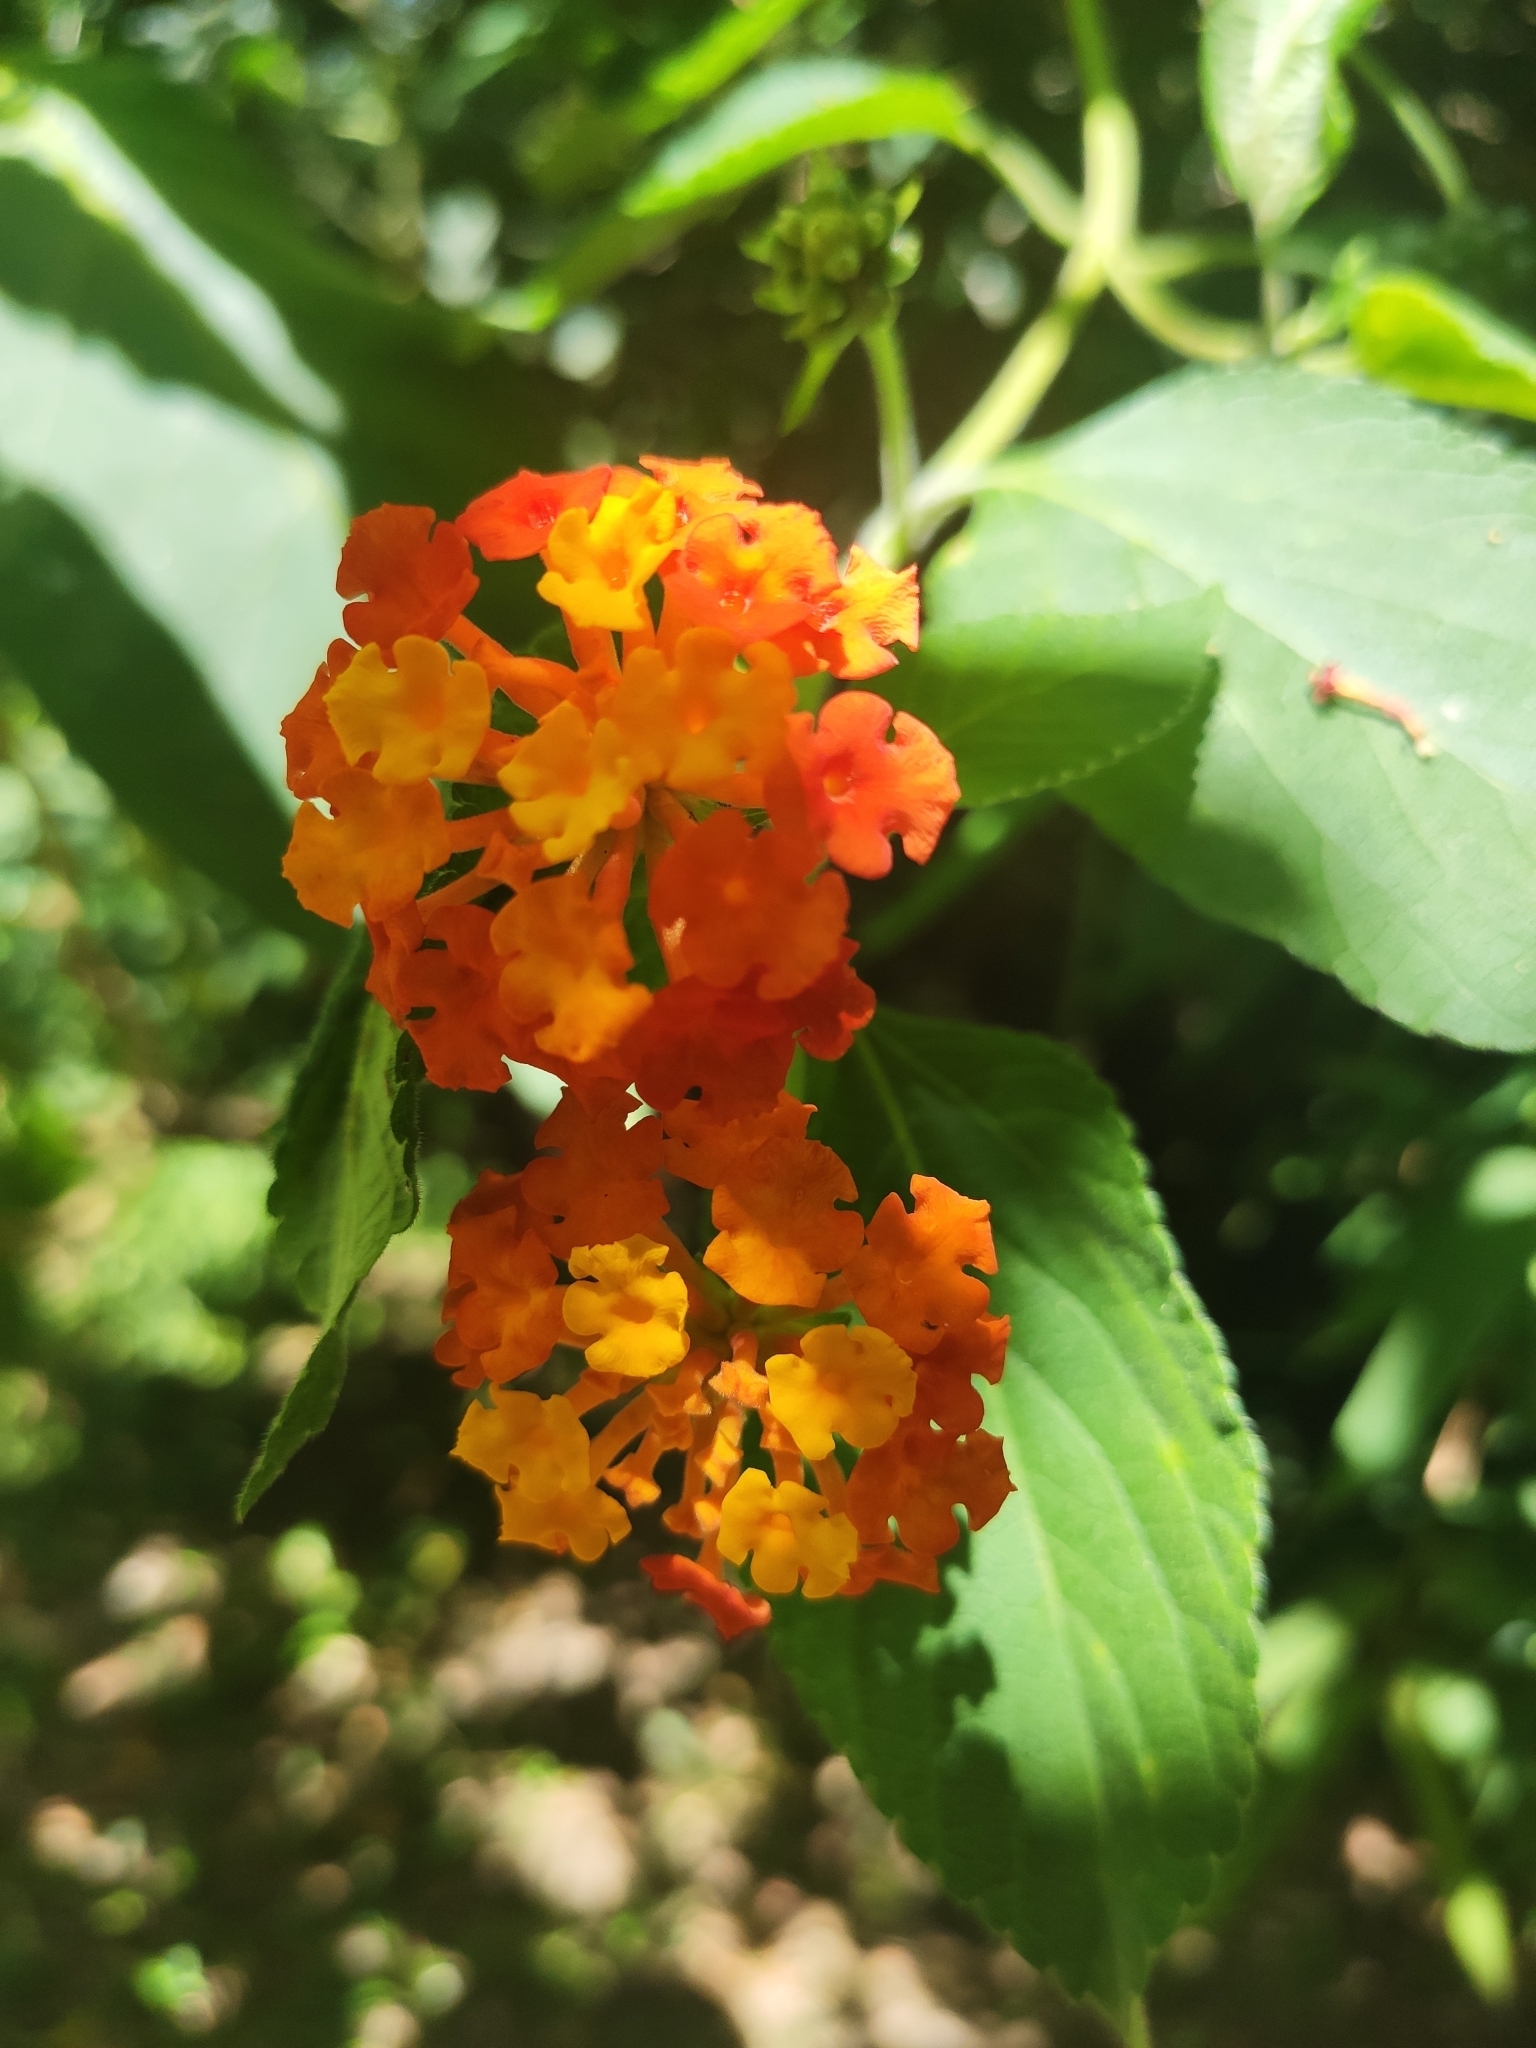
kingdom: Plantae
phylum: Tracheophyta
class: Magnoliopsida
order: Lamiales
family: Verbenaceae
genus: Lantana
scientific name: Lantana camara
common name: Lantana
